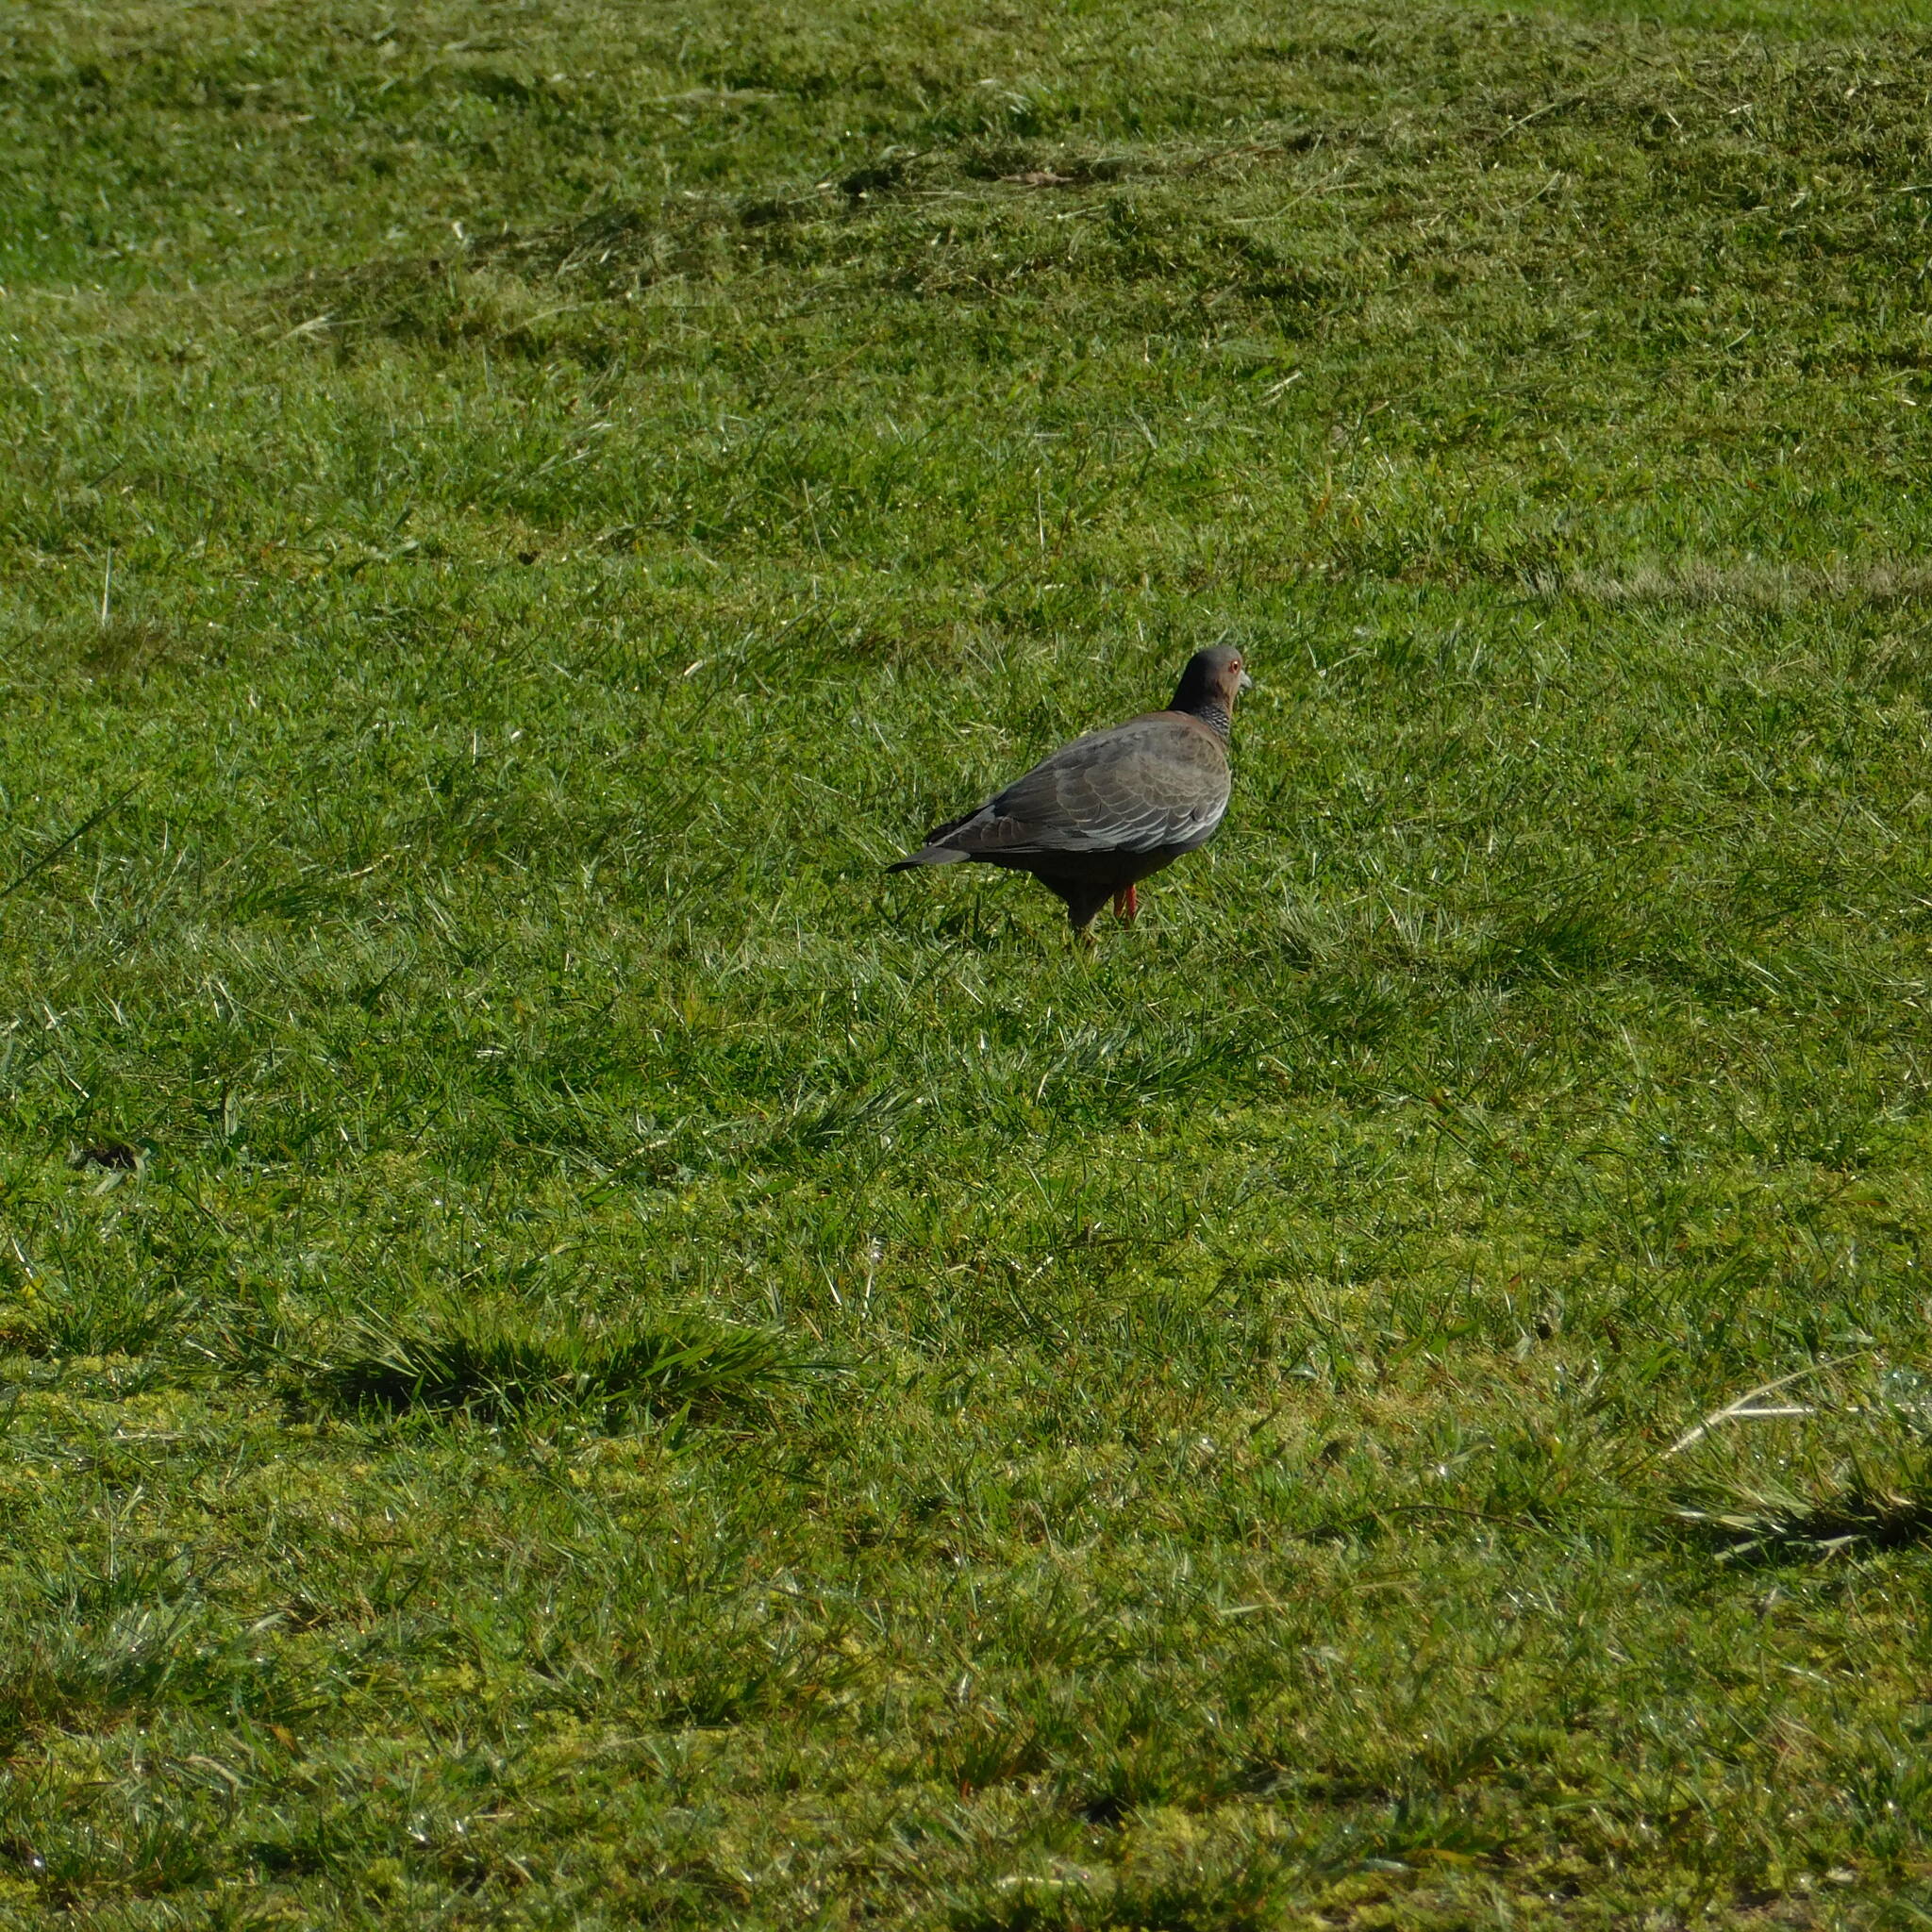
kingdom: Animalia
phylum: Chordata
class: Aves
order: Columbiformes
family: Columbidae
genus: Patagioenas
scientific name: Patagioenas picazuro
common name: Picazuro pigeon
